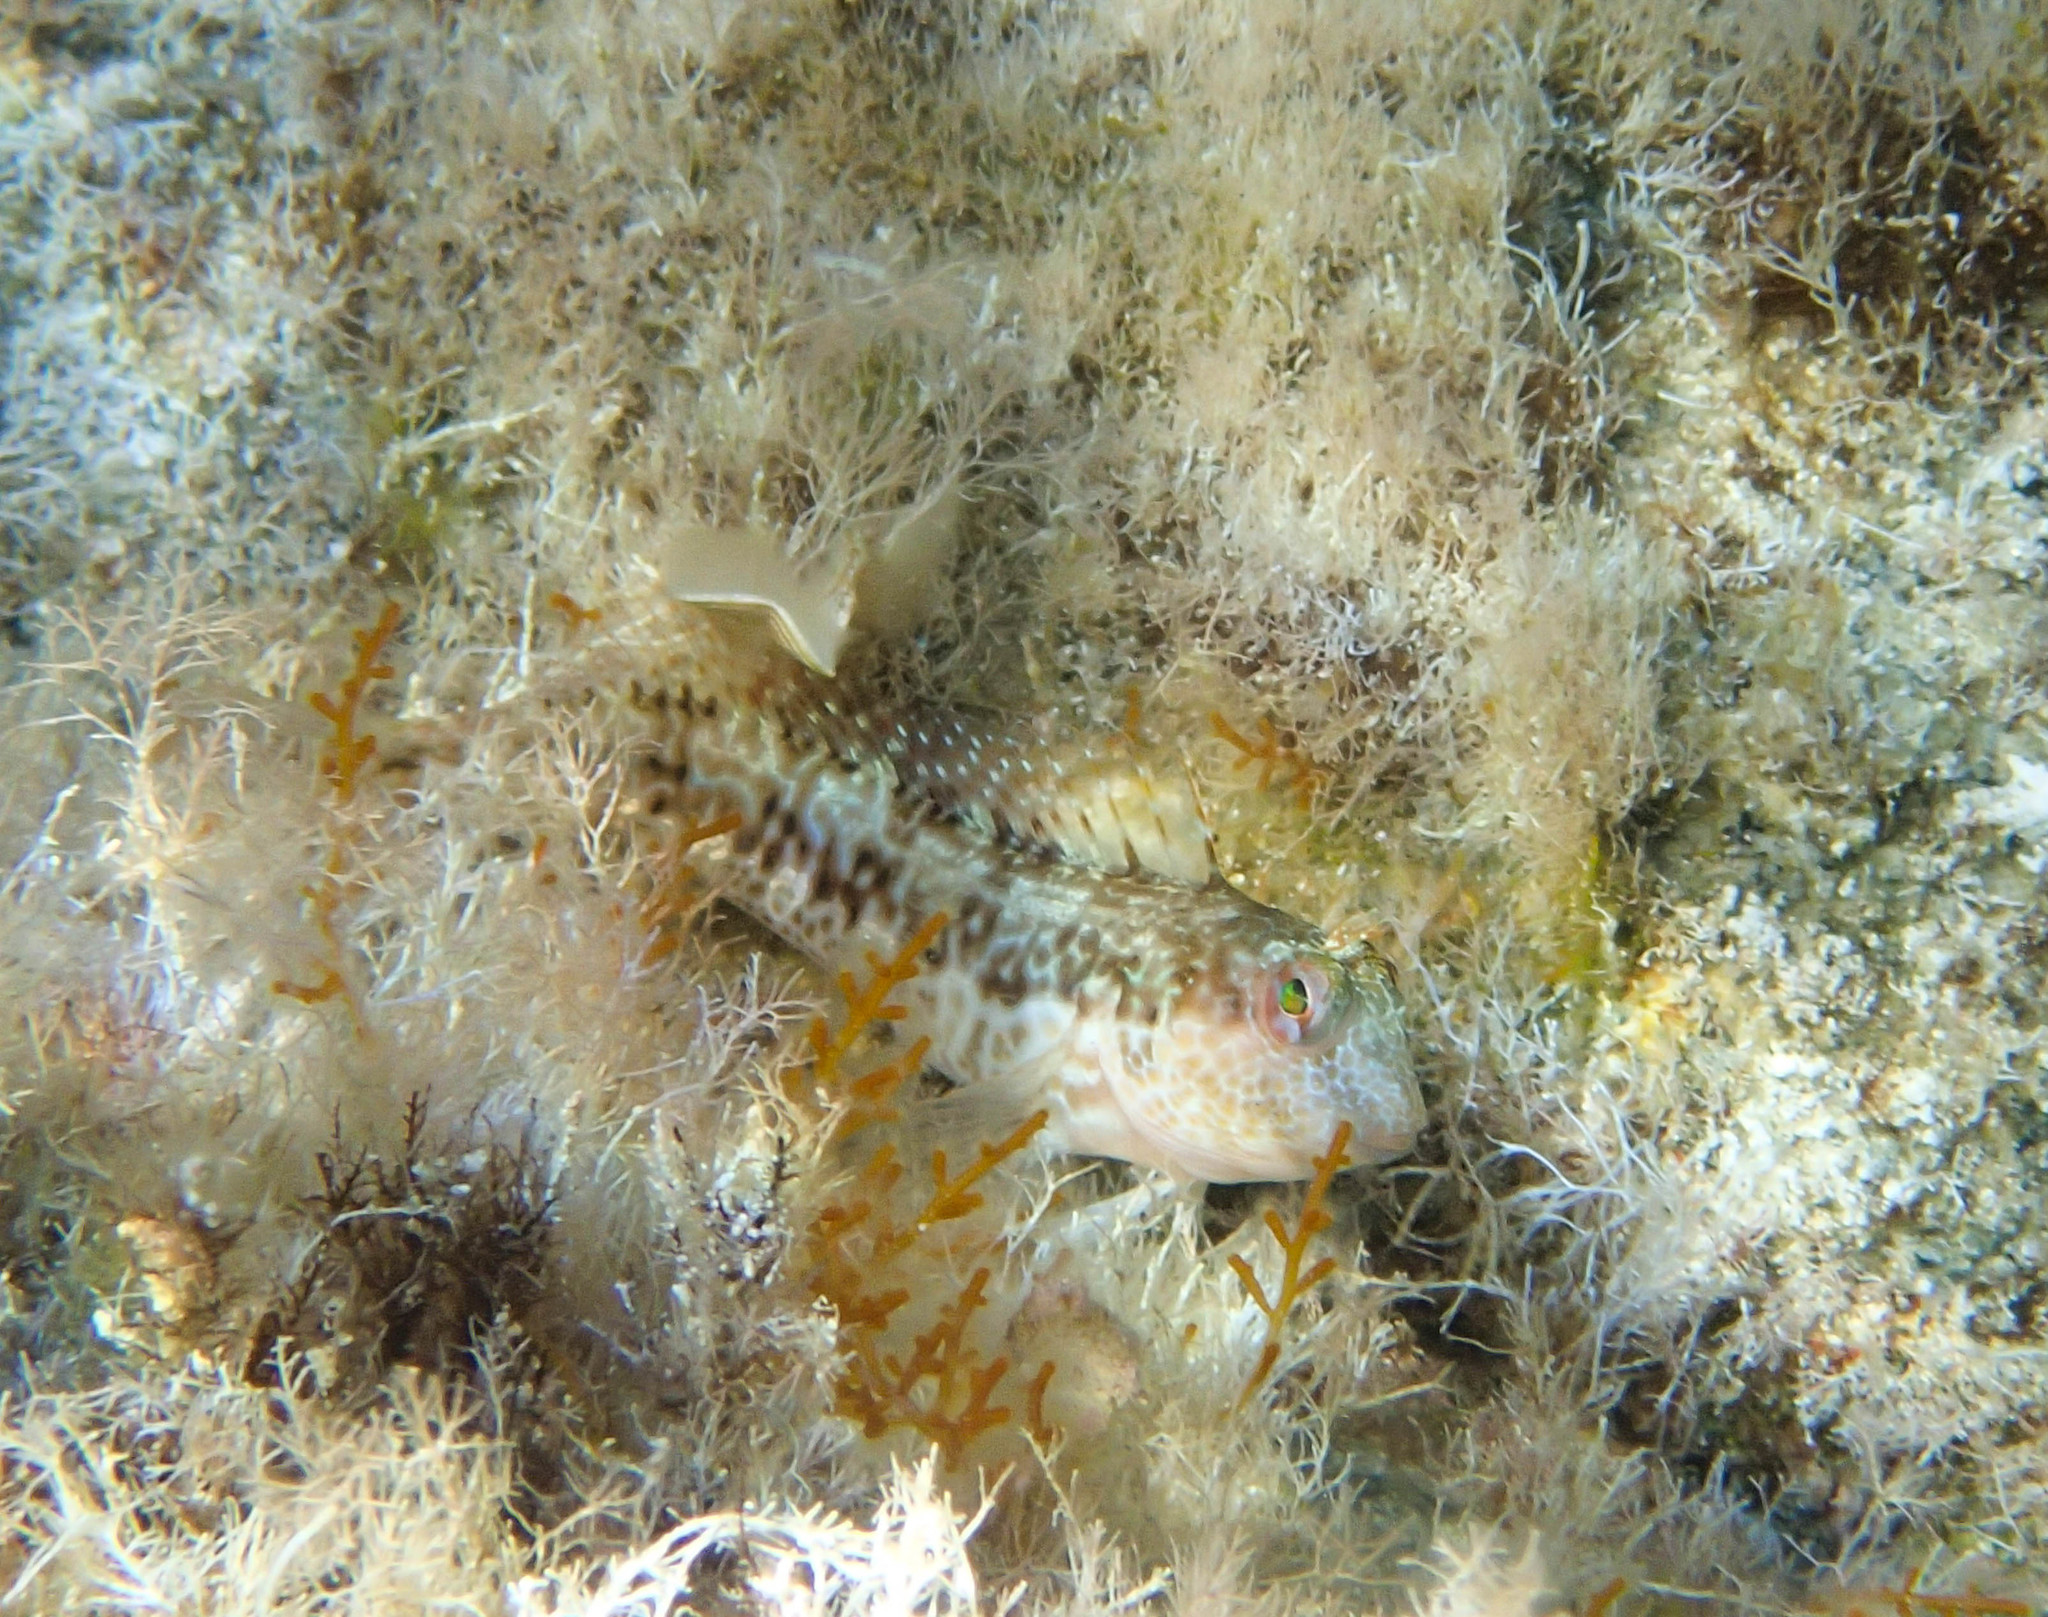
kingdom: Animalia
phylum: Chordata
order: Perciformes
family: Blenniidae
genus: Parablennius
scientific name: Parablennius pilicornis
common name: Ringneck blenny
